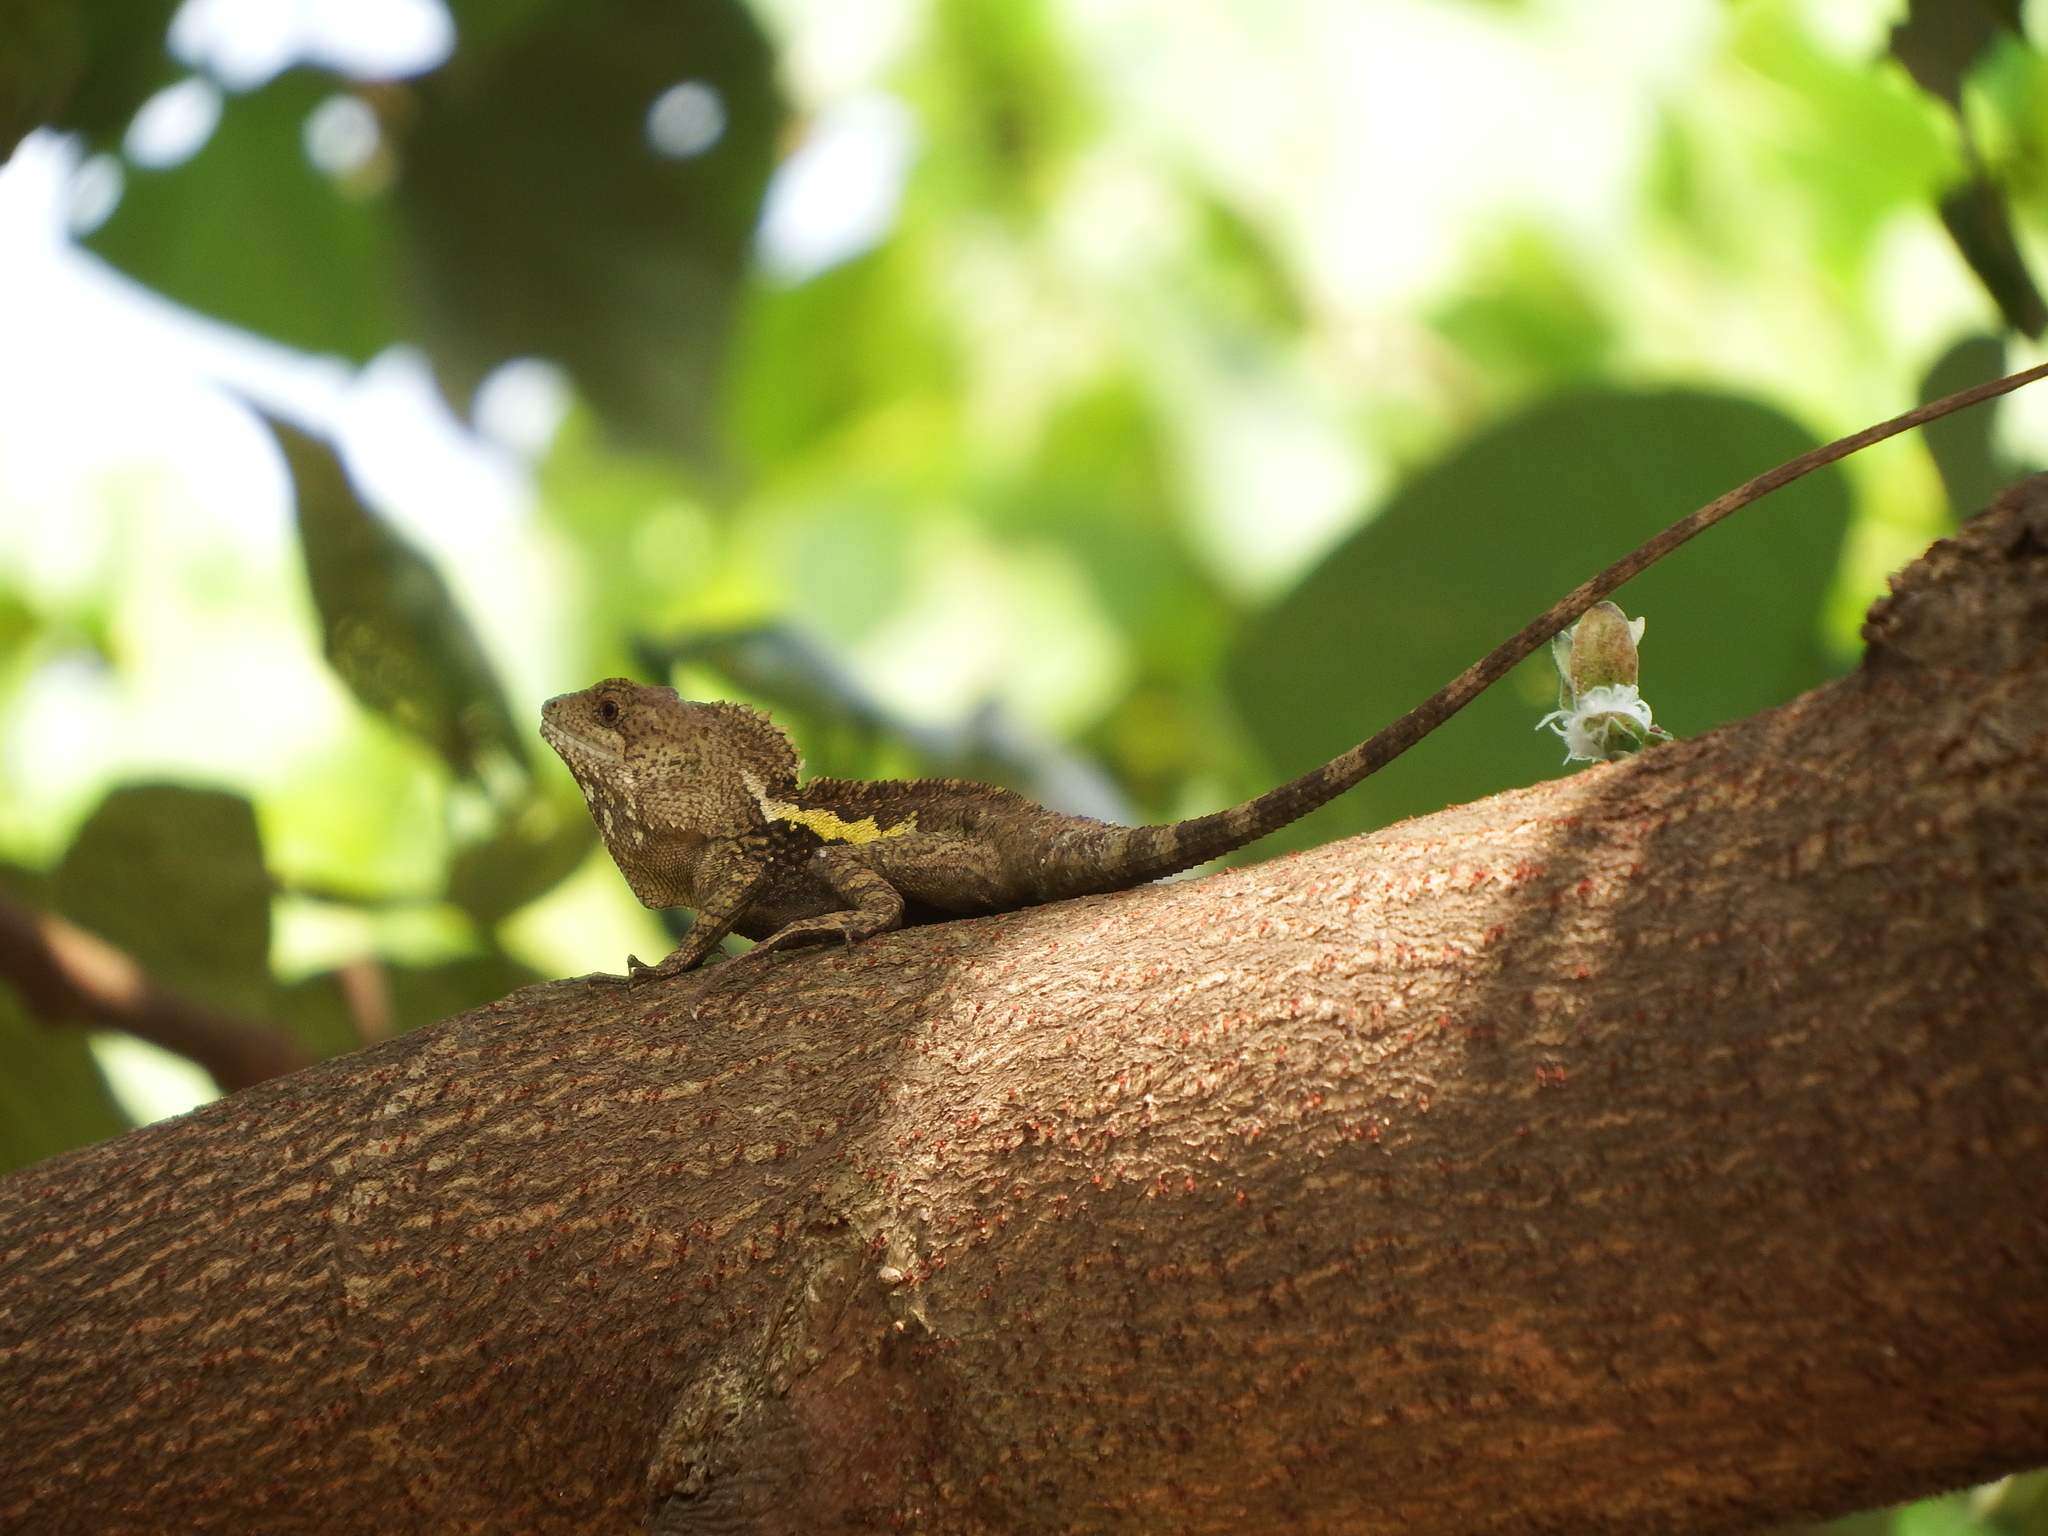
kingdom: Animalia
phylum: Chordata
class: Squamata
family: Agamidae
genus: Diploderma
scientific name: Diploderma swinhonis
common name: Taiwan japalure
